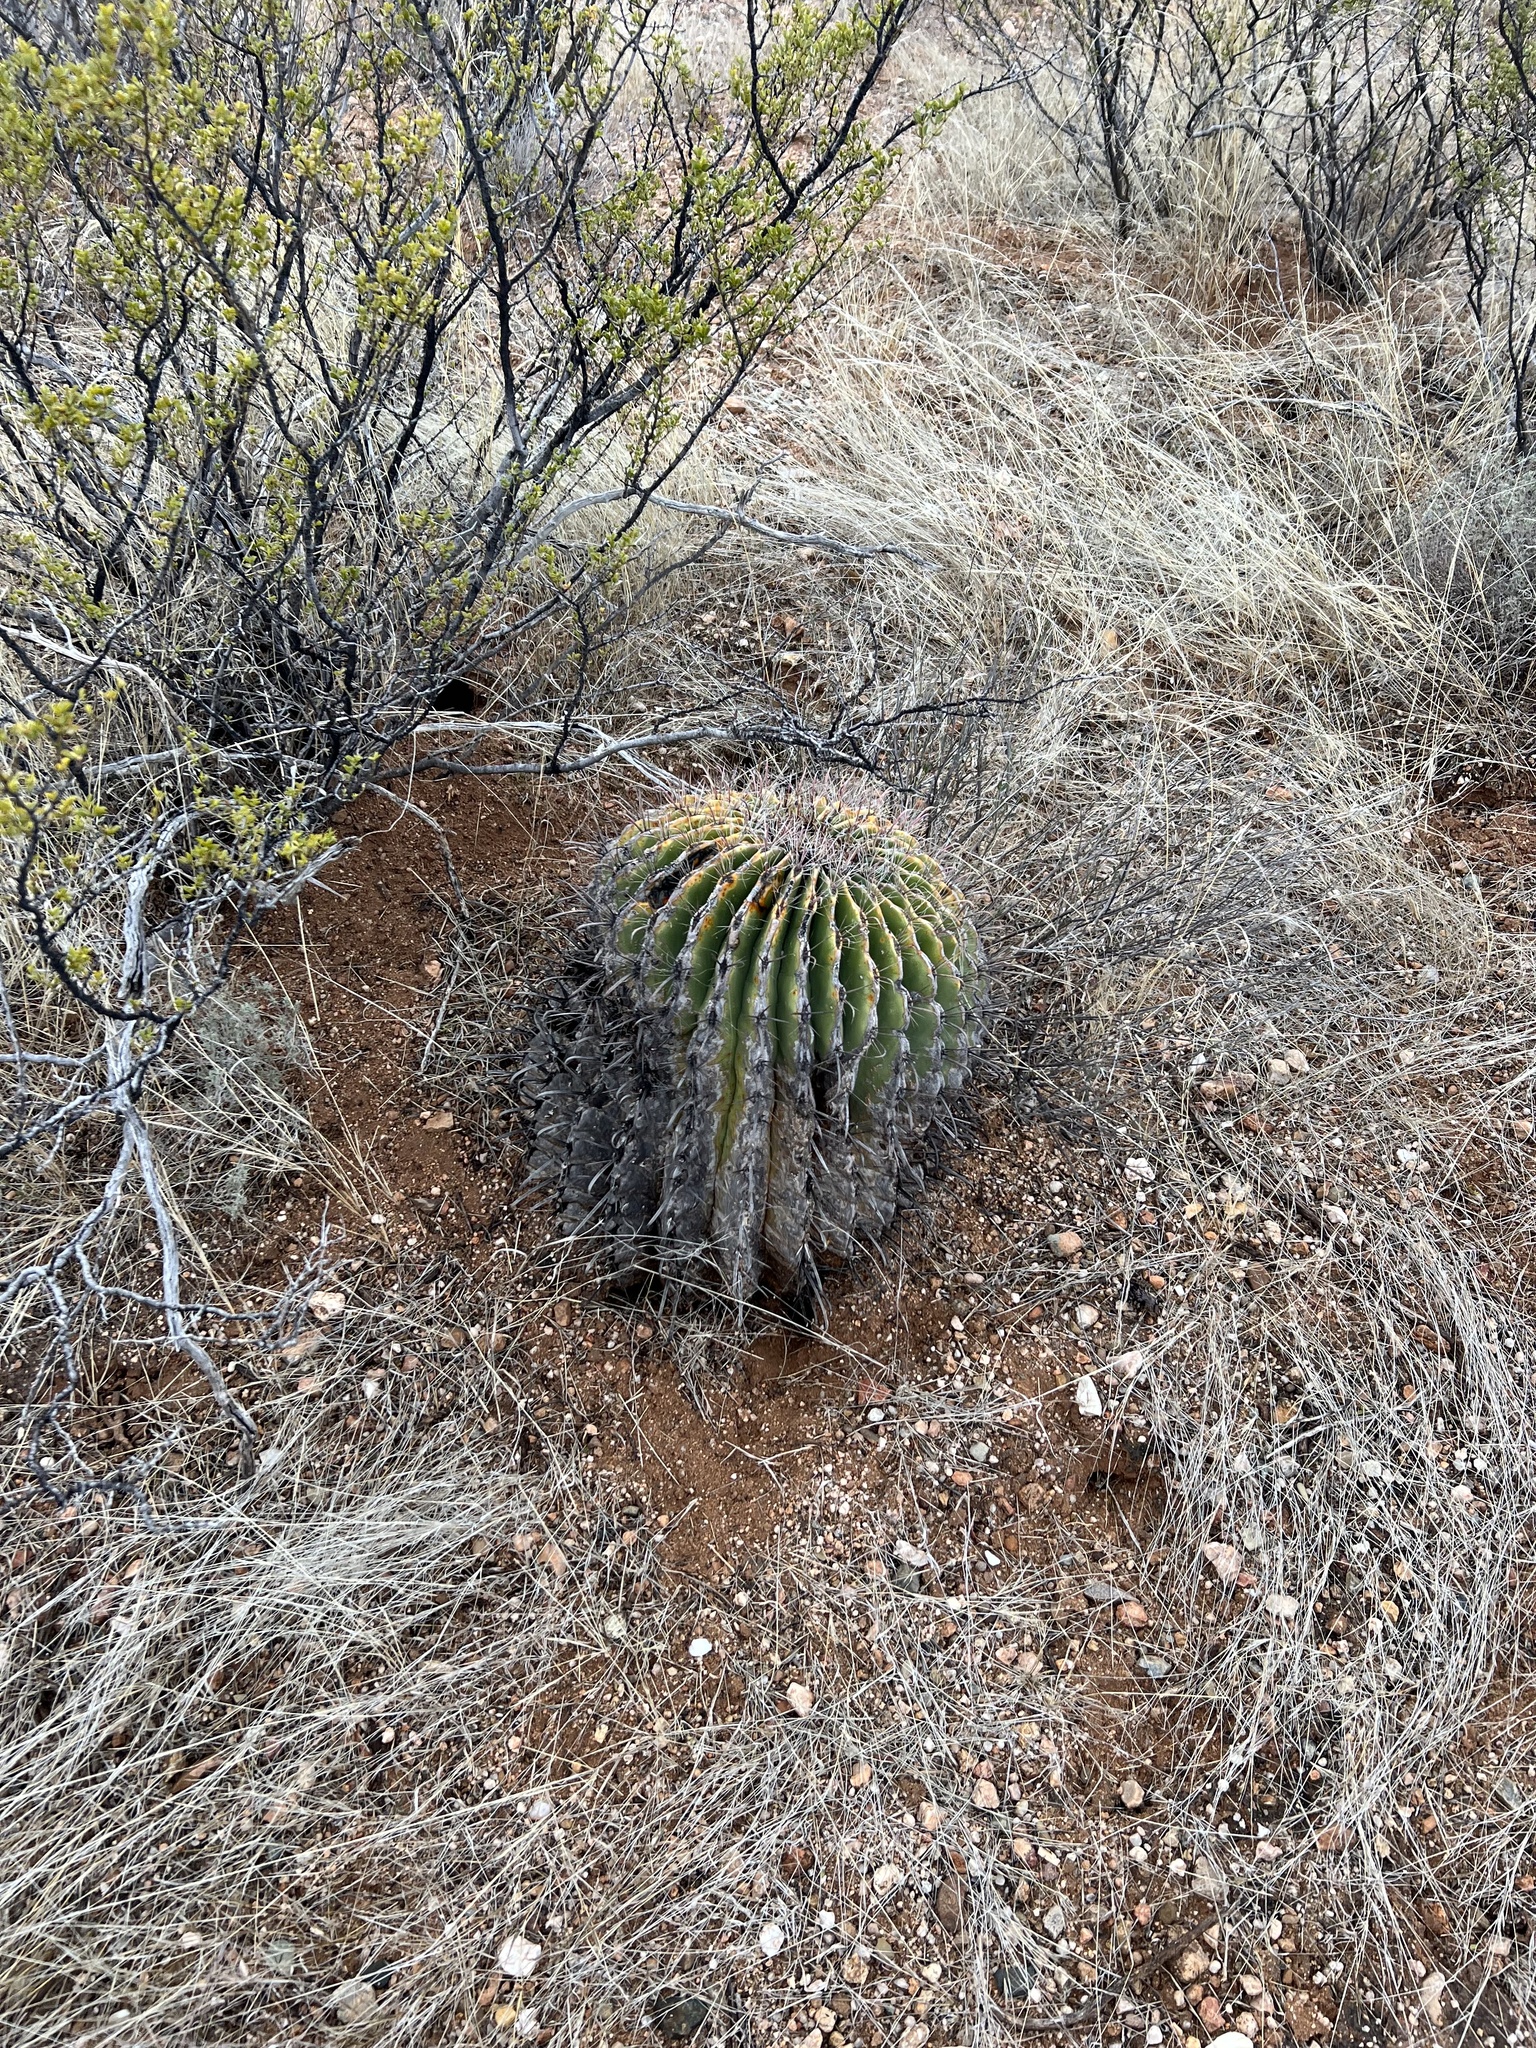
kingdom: Plantae
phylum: Tracheophyta
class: Magnoliopsida
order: Caryophyllales
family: Cactaceae
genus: Ferocactus
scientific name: Ferocactus wislizeni
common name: Candy barrel cactus
